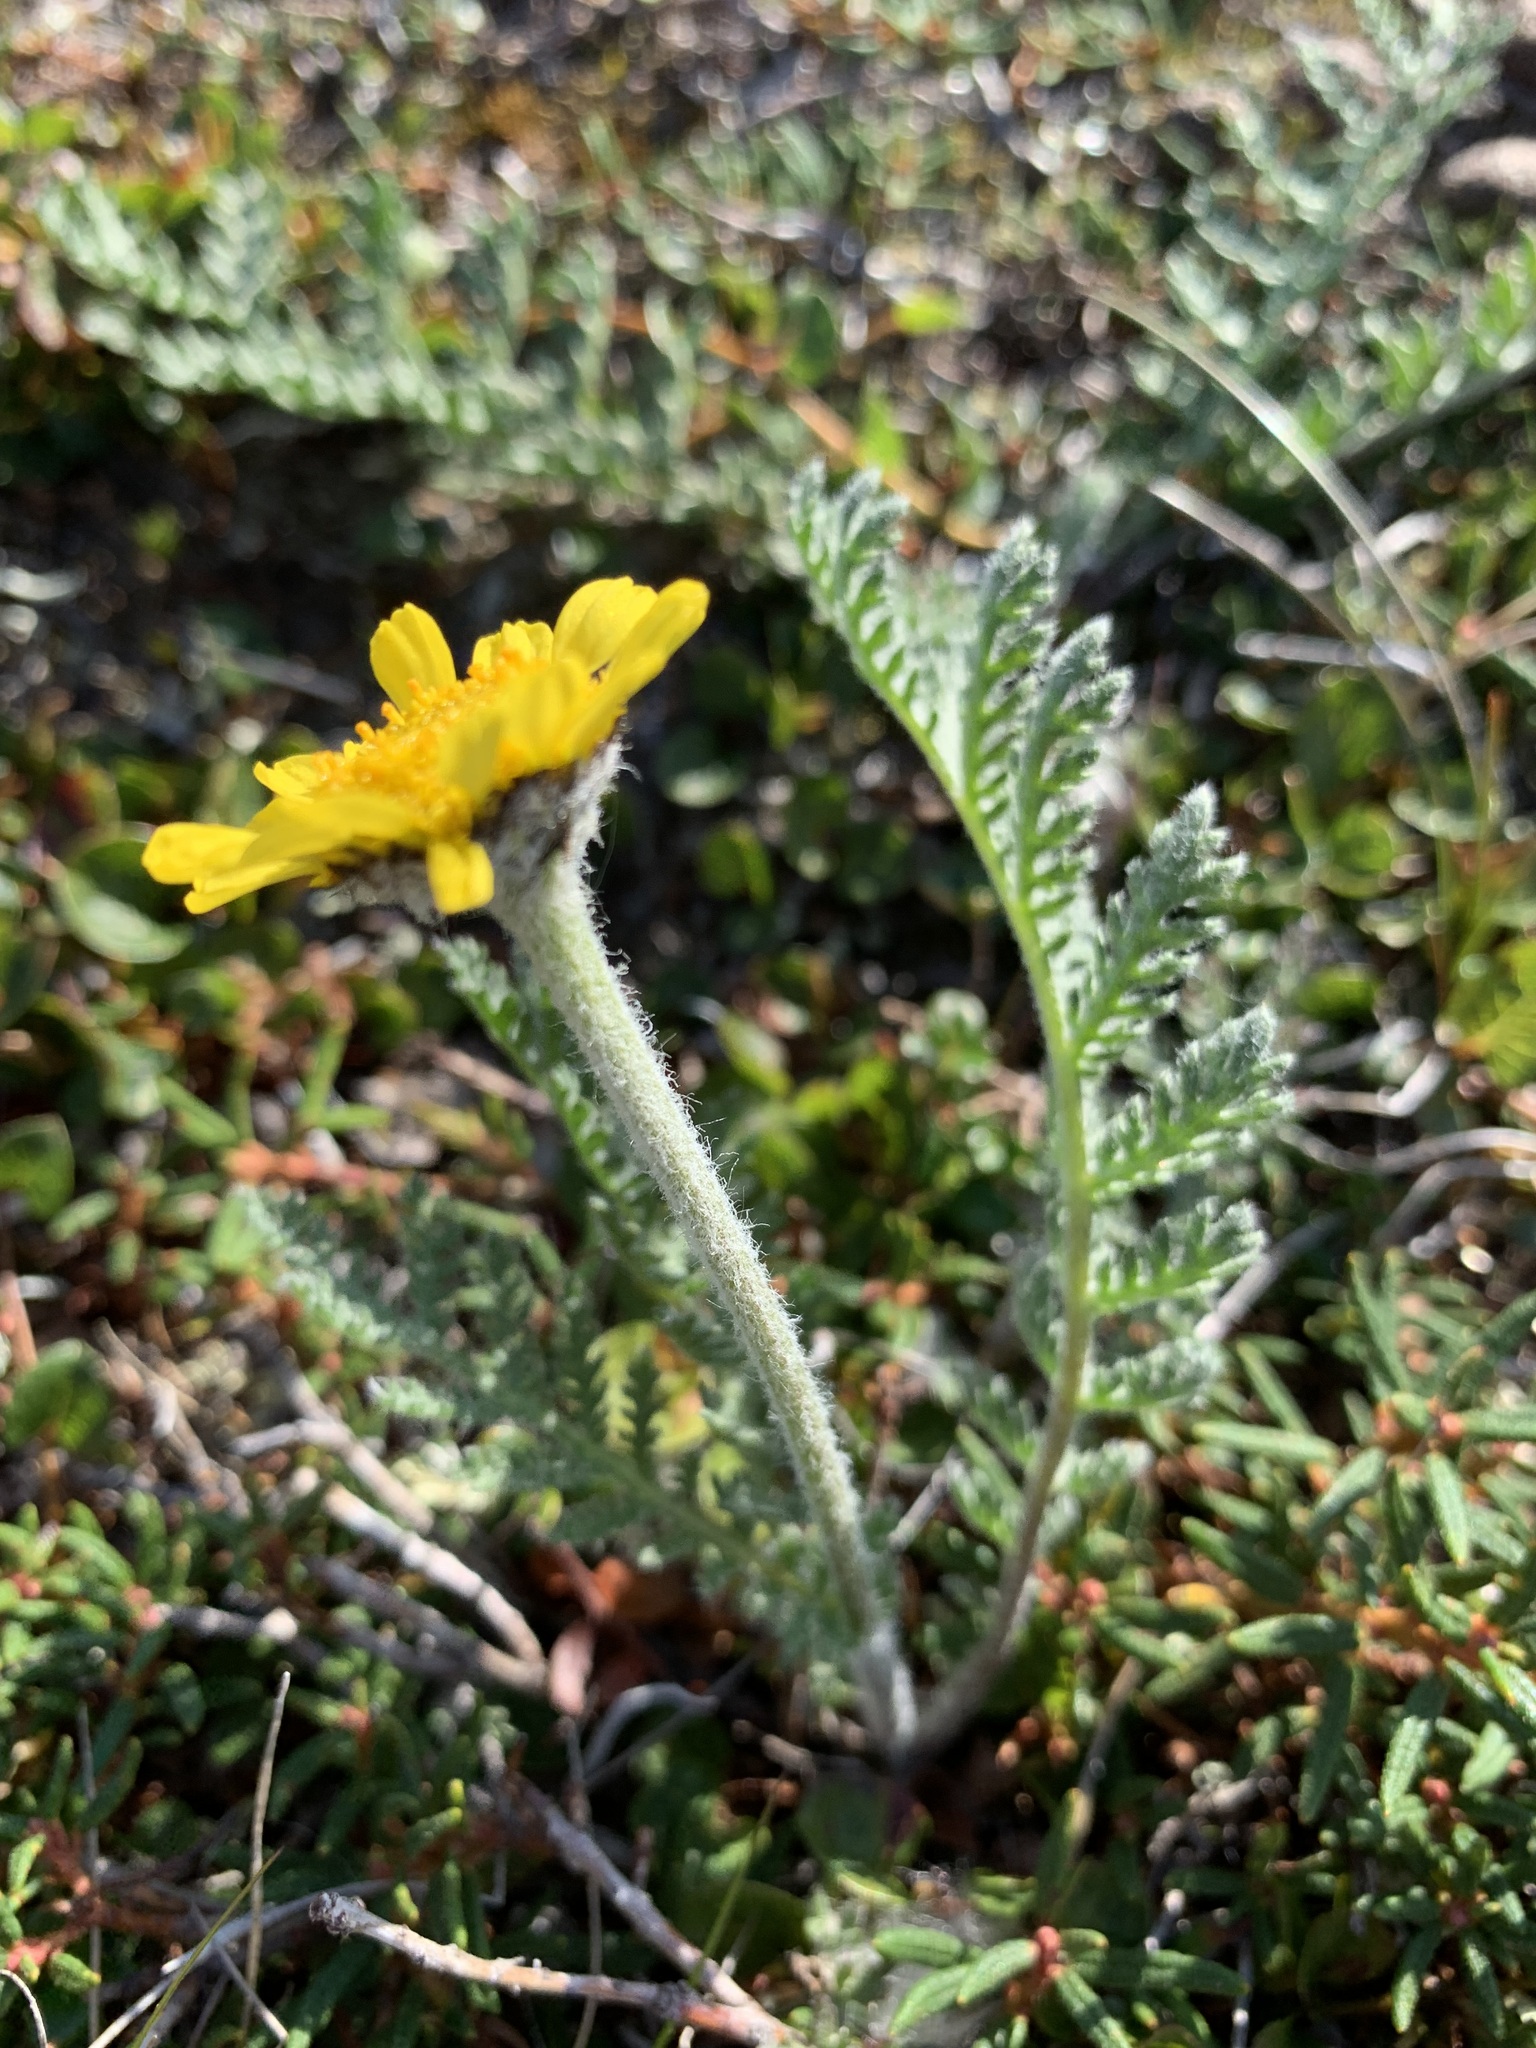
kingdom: Plantae
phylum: Tracheophyta
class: Magnoliopsida
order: Asterales
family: Asteraceae
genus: Tanacetum
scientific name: Tanacetum bipinnatum
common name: Dwarf tansy
